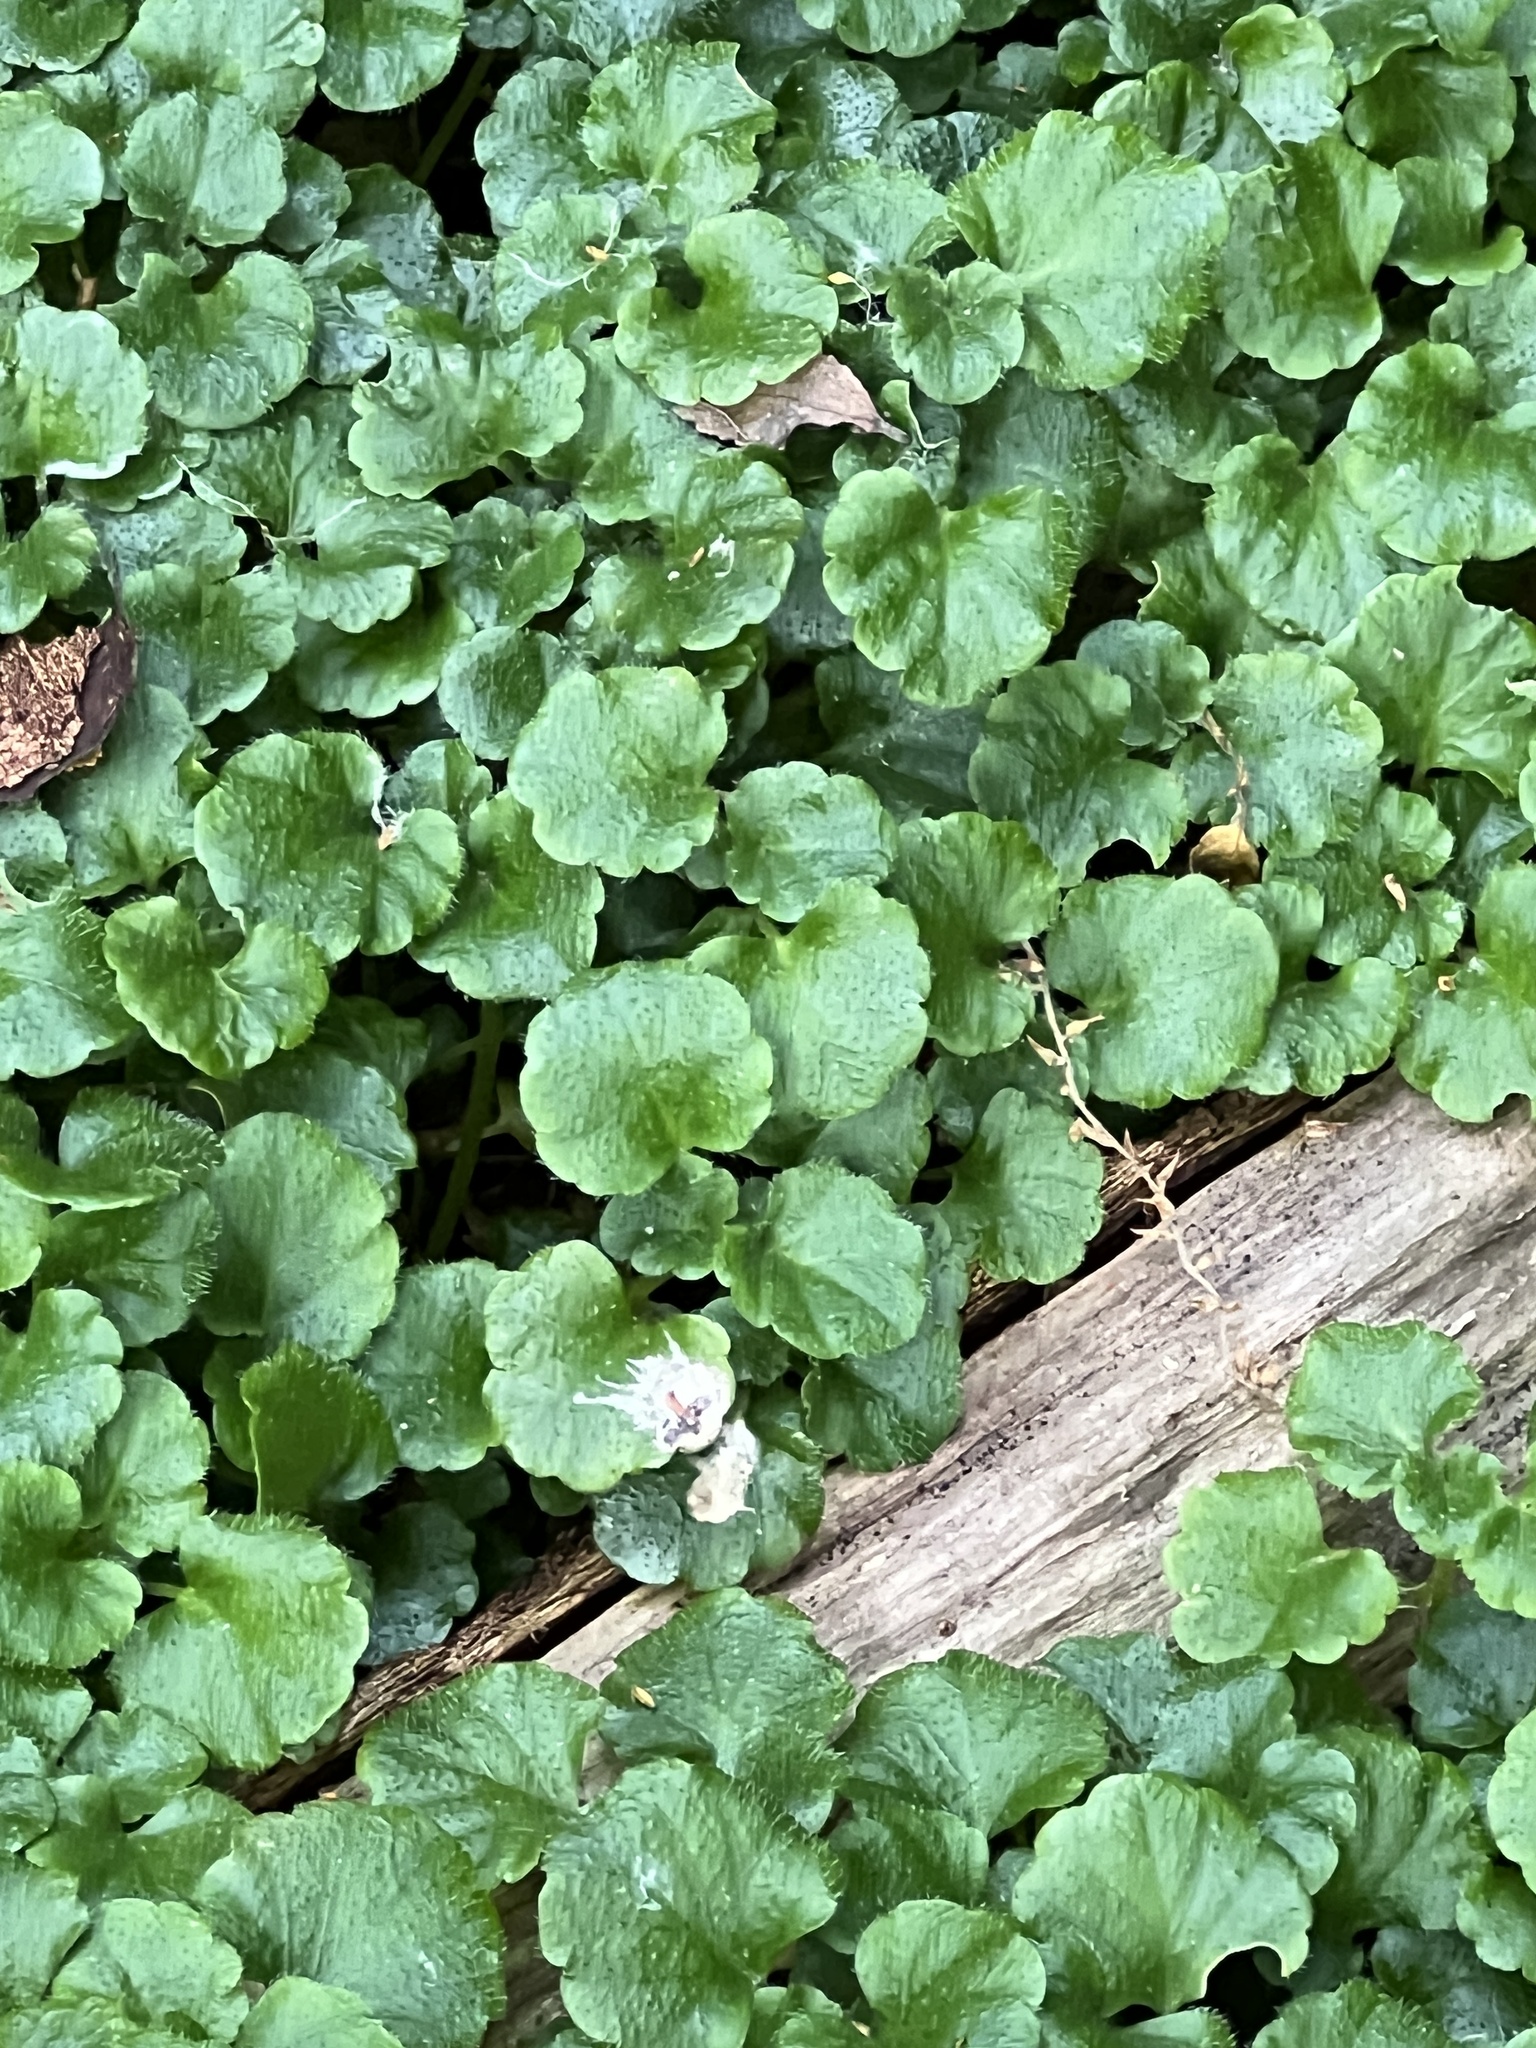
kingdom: Plantae
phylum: Tracheophyta
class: Magnoliopsida
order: Malpighiales
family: Euphorbiaceae
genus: Dysopsis
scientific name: Dysopsis glechomoides
